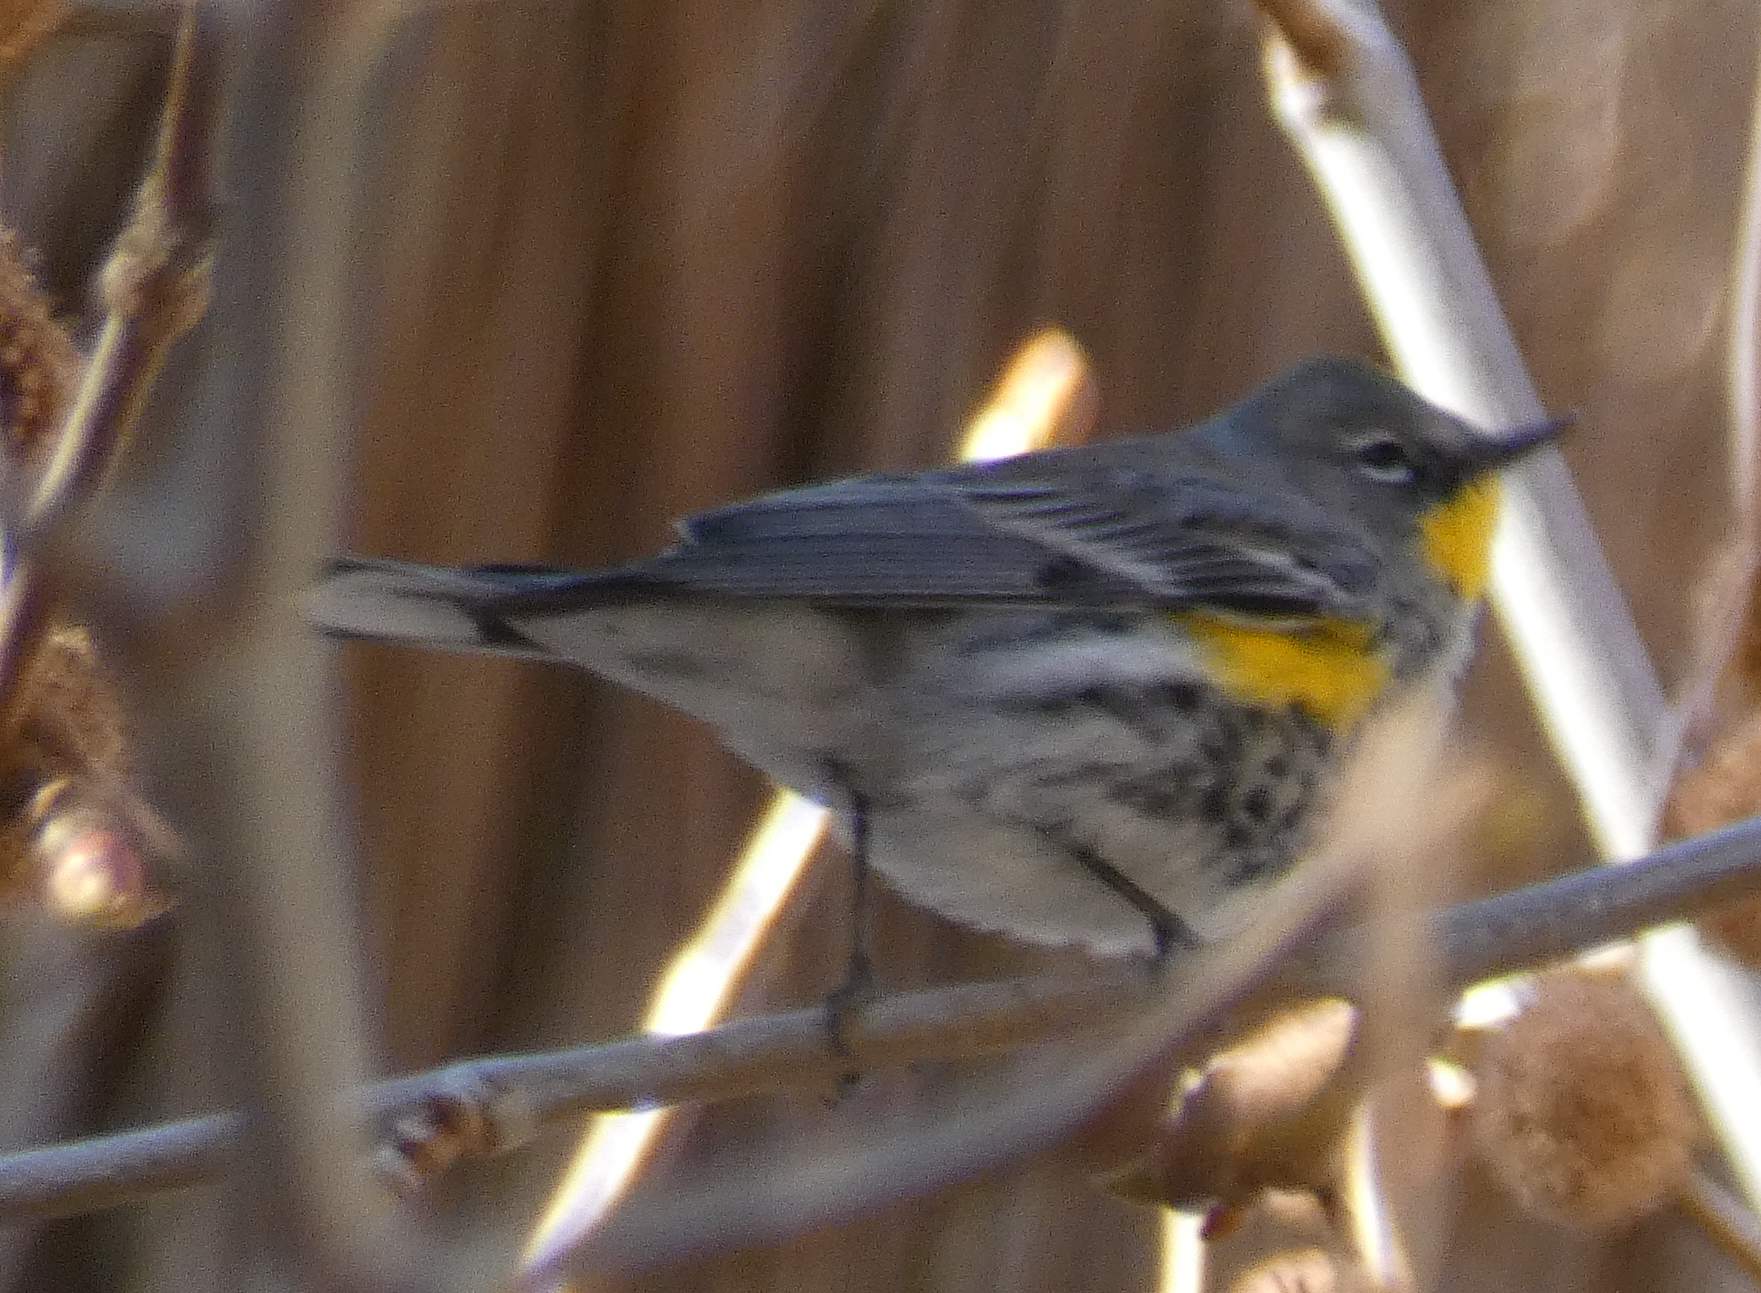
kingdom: Animalia
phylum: Chordata
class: Aves
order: Passeriformes
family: Parulidae
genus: Setophaga
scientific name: Setophaga coronata
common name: Myrtle warbler
